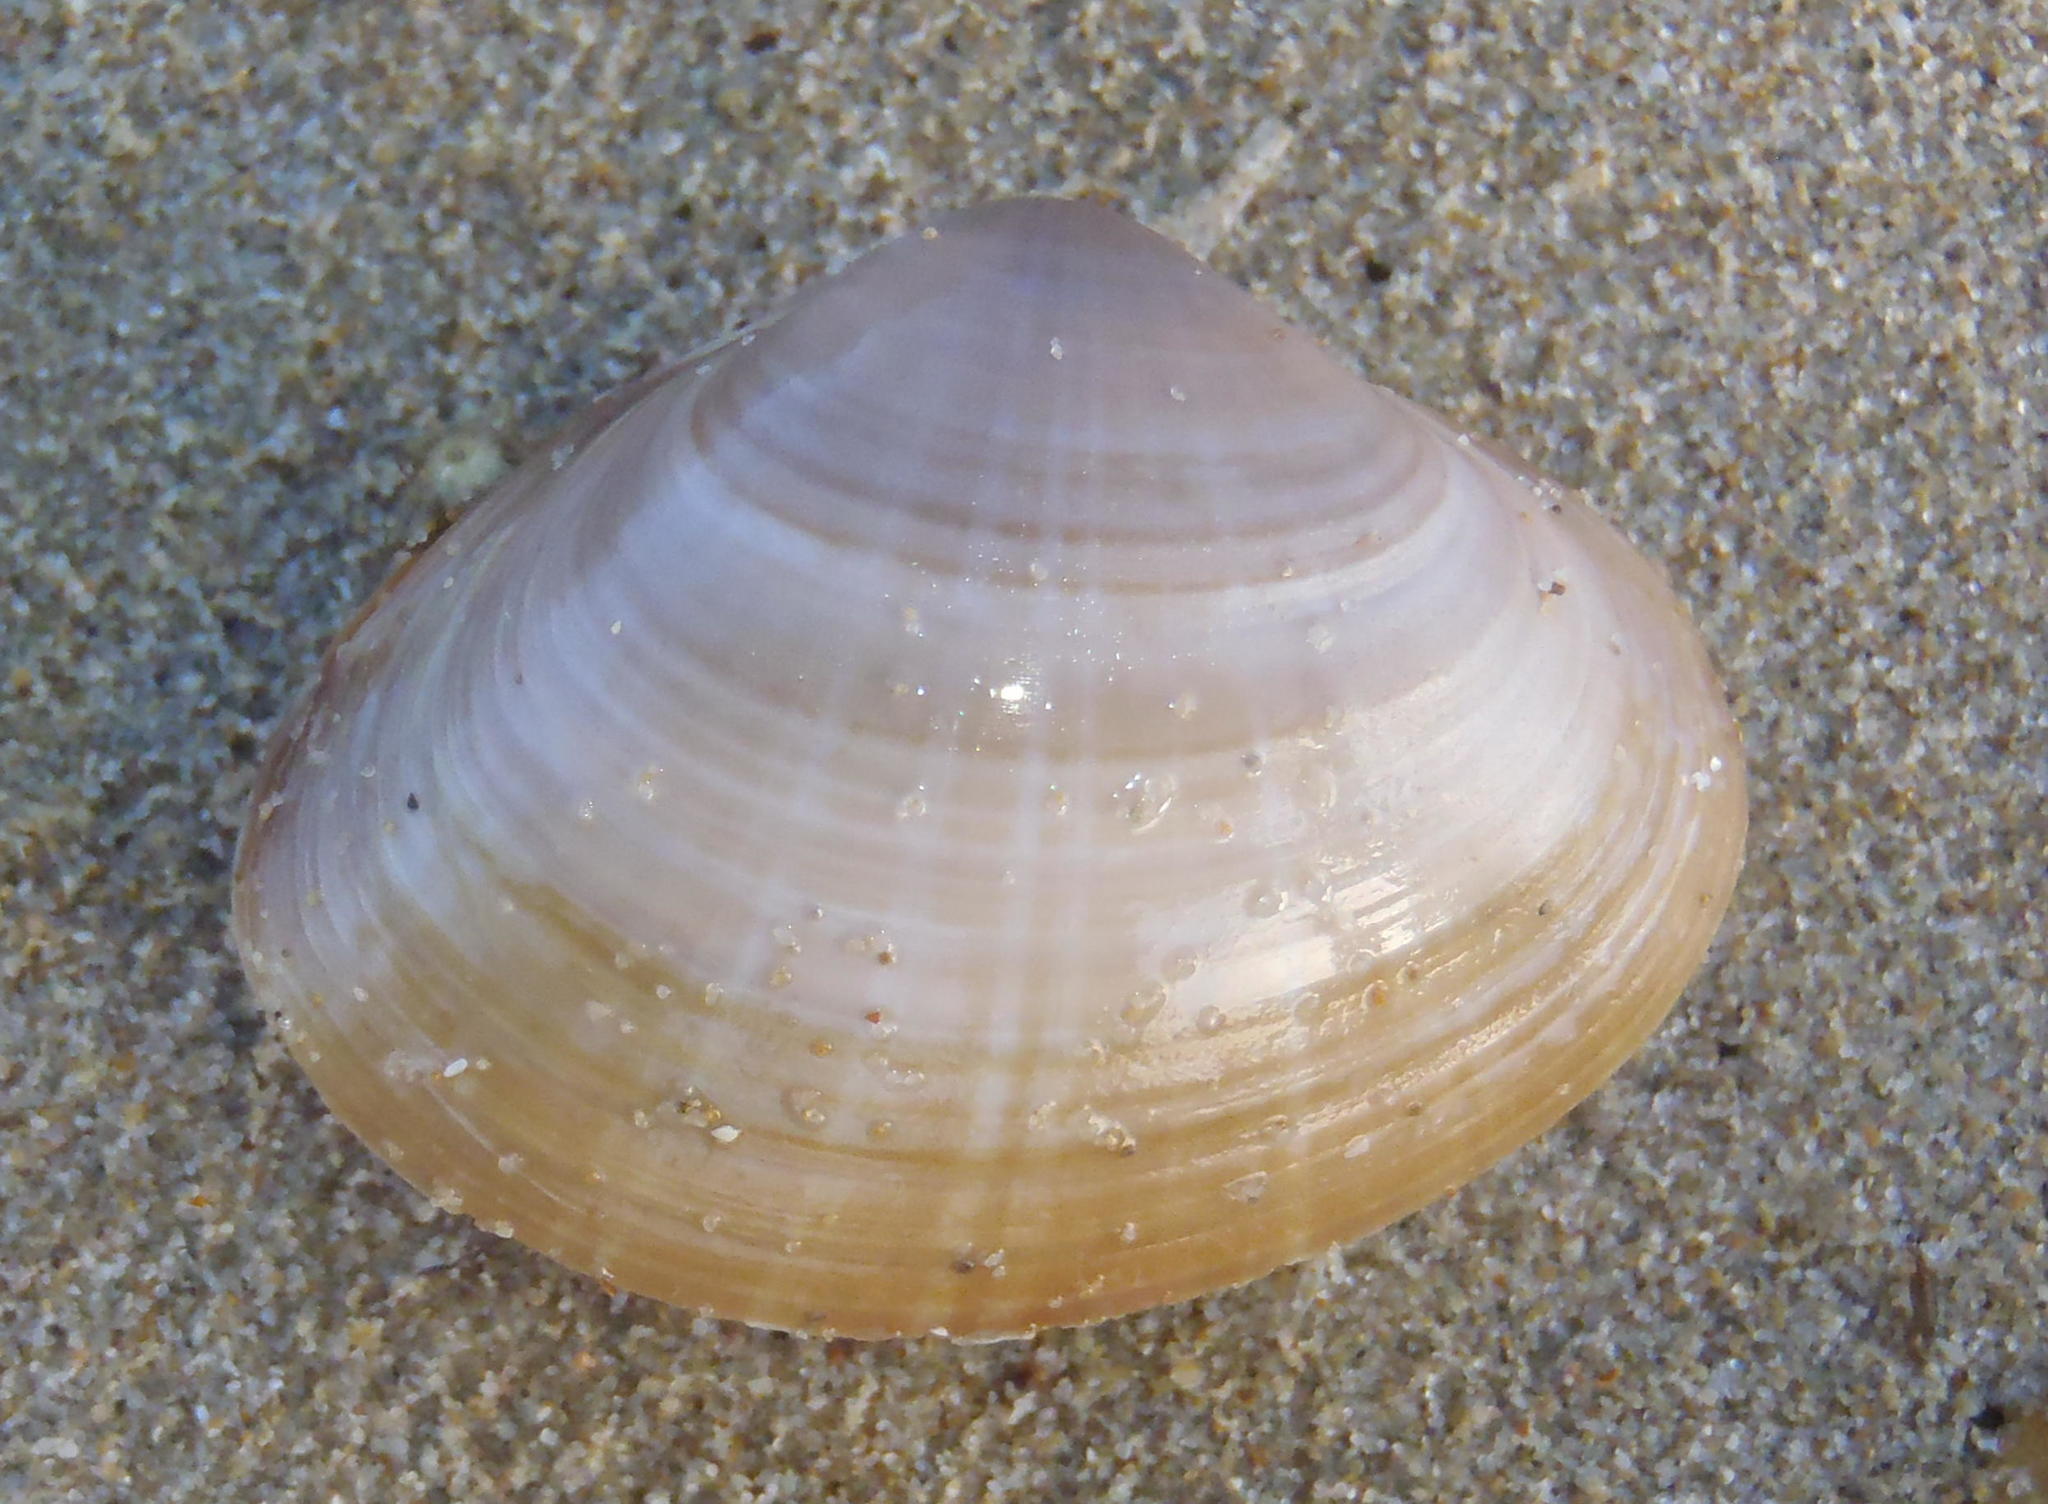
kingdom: Animalia
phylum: Mollusca
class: Bivalvia
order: Venerida
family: Mactridae
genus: Mactra
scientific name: Mactra glabrata
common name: Smooth mactra
